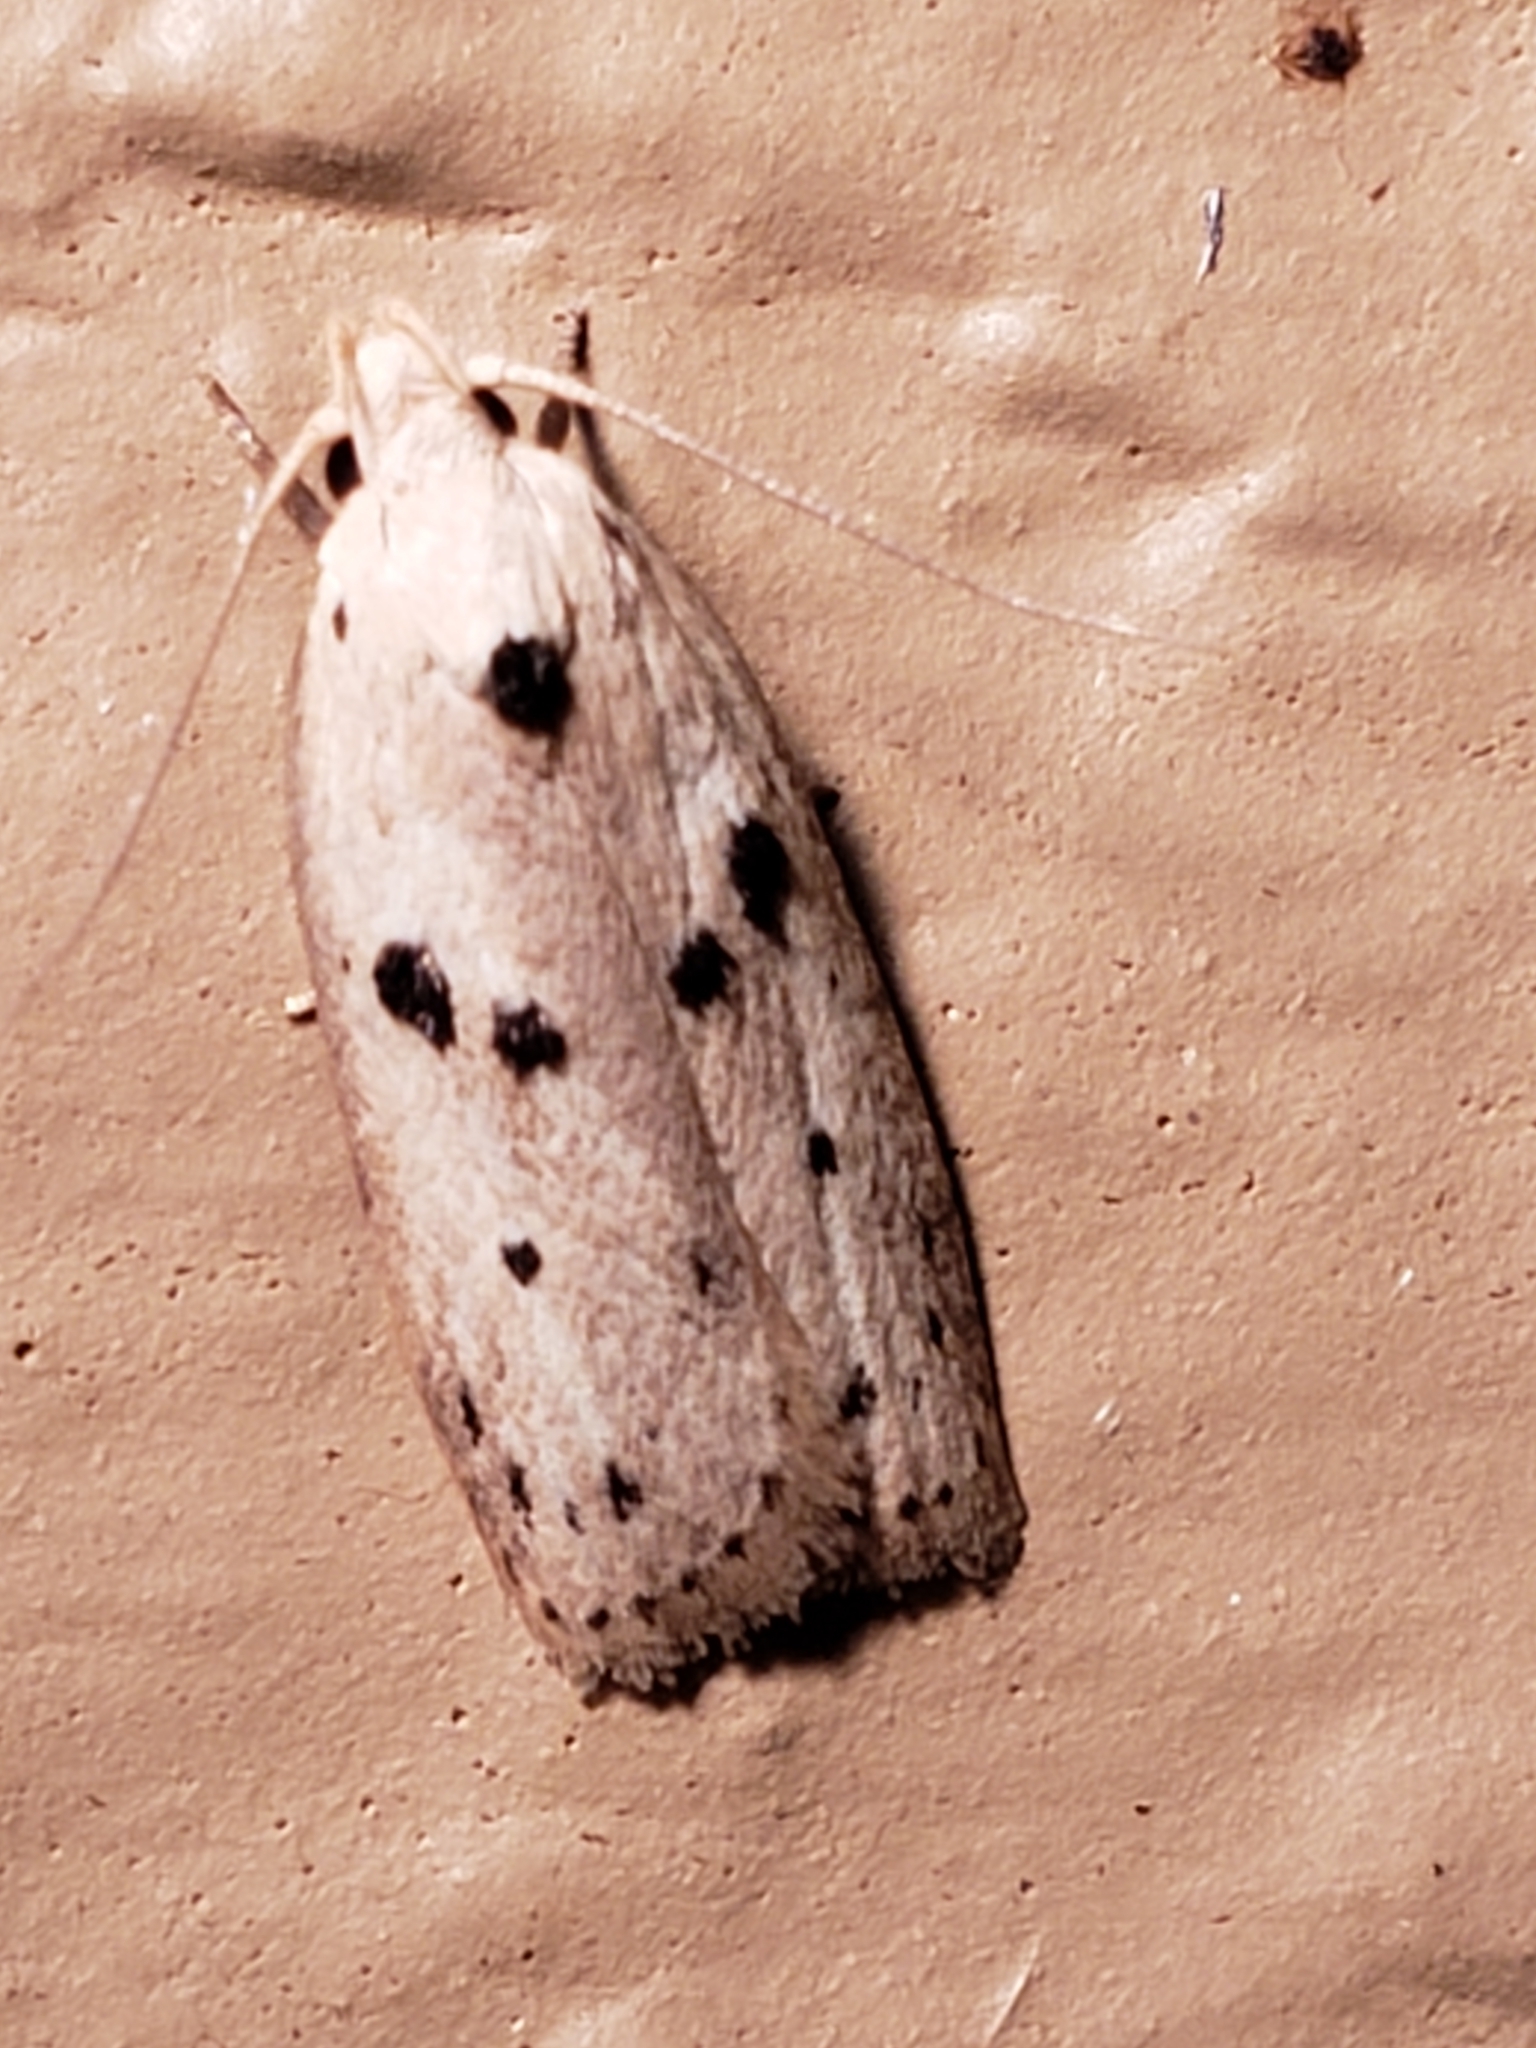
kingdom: Animalia
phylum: Arthropoda
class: Insecta
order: Lepidoptera
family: Peleopodidae
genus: Scythropiodes
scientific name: Scythropiodes issikii
